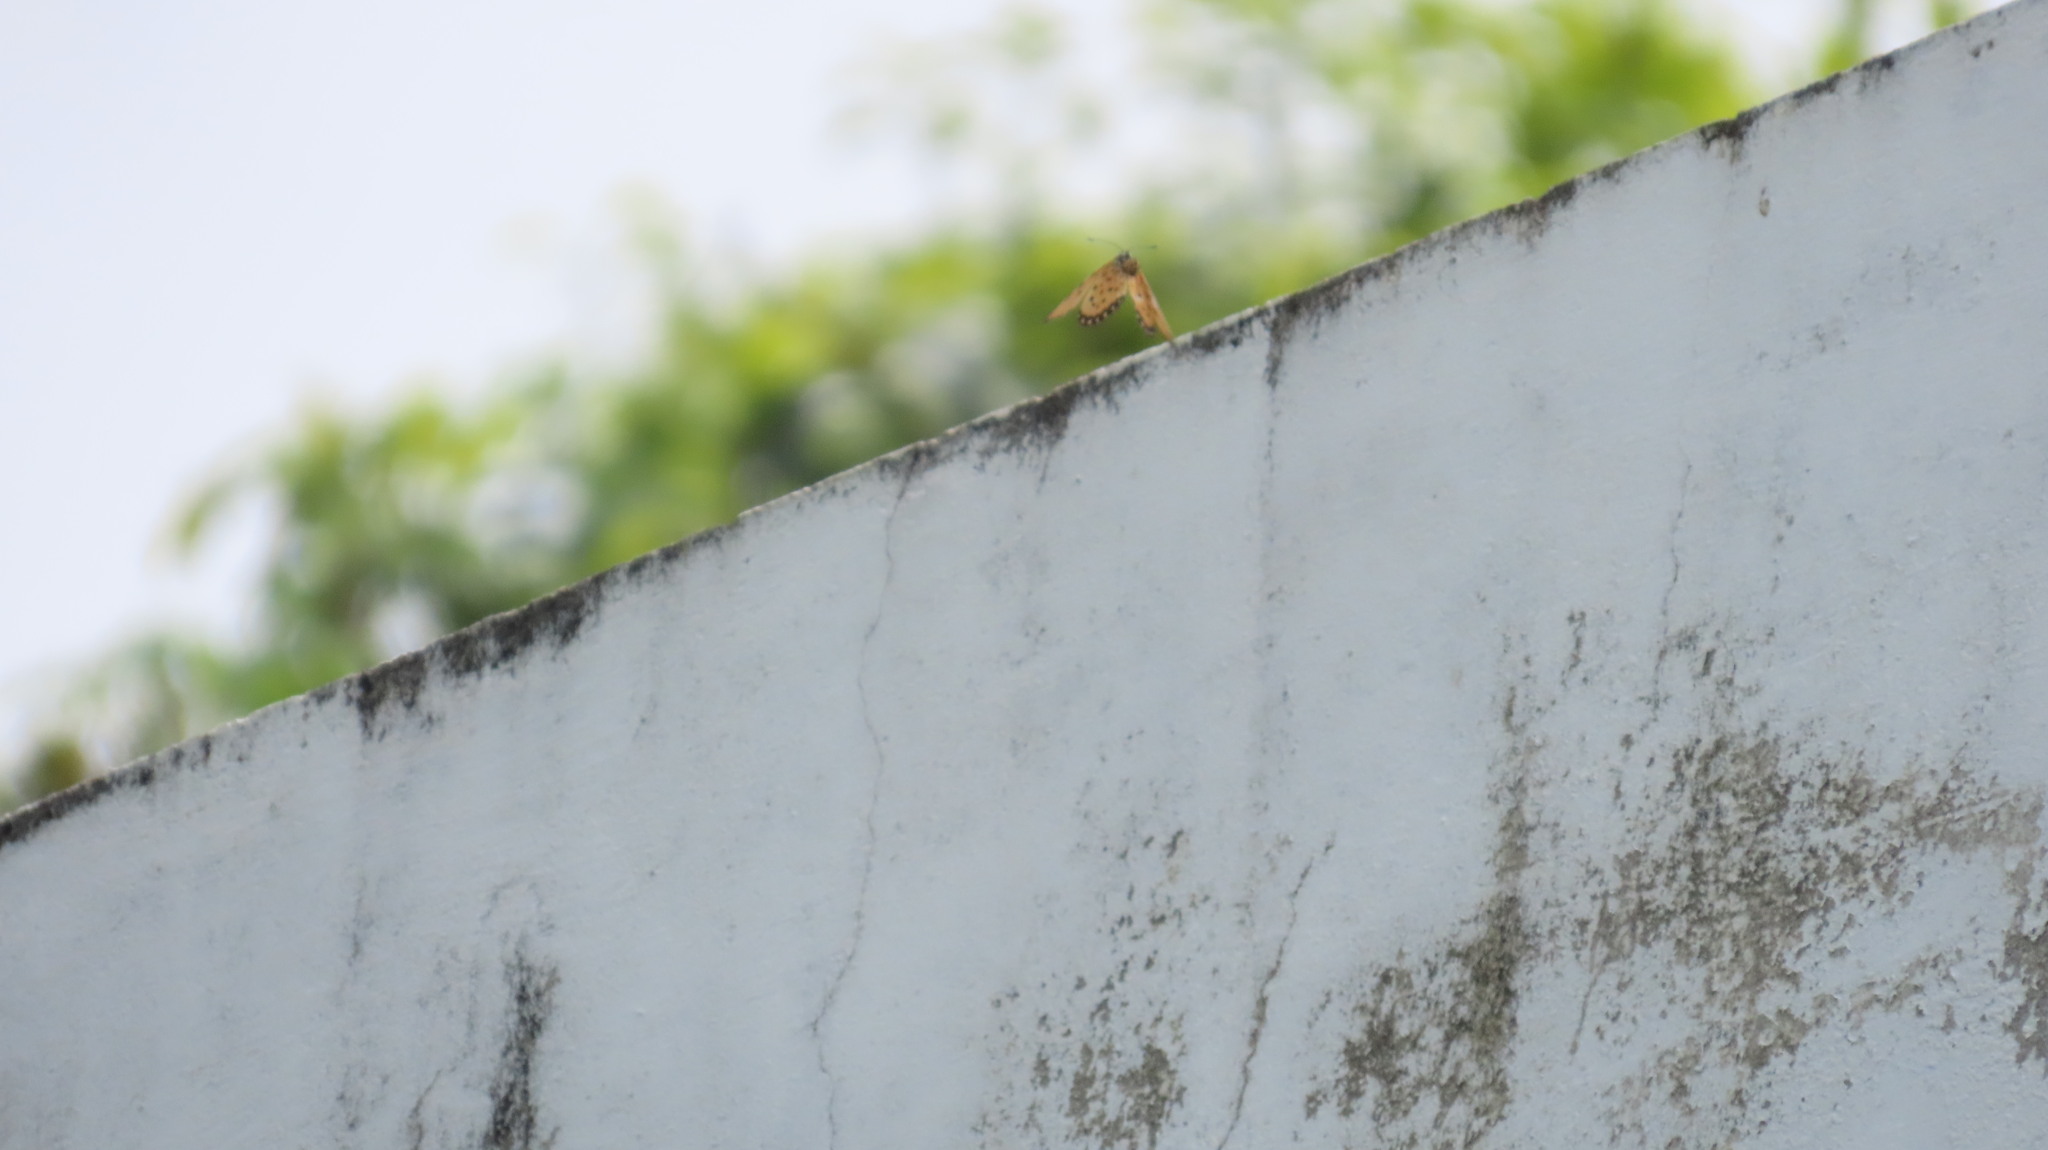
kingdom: Animalia
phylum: Arthropoda
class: Insecta
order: Lepidoptera
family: Nymphalidae
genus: Acraea
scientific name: Acraea terpsicore
